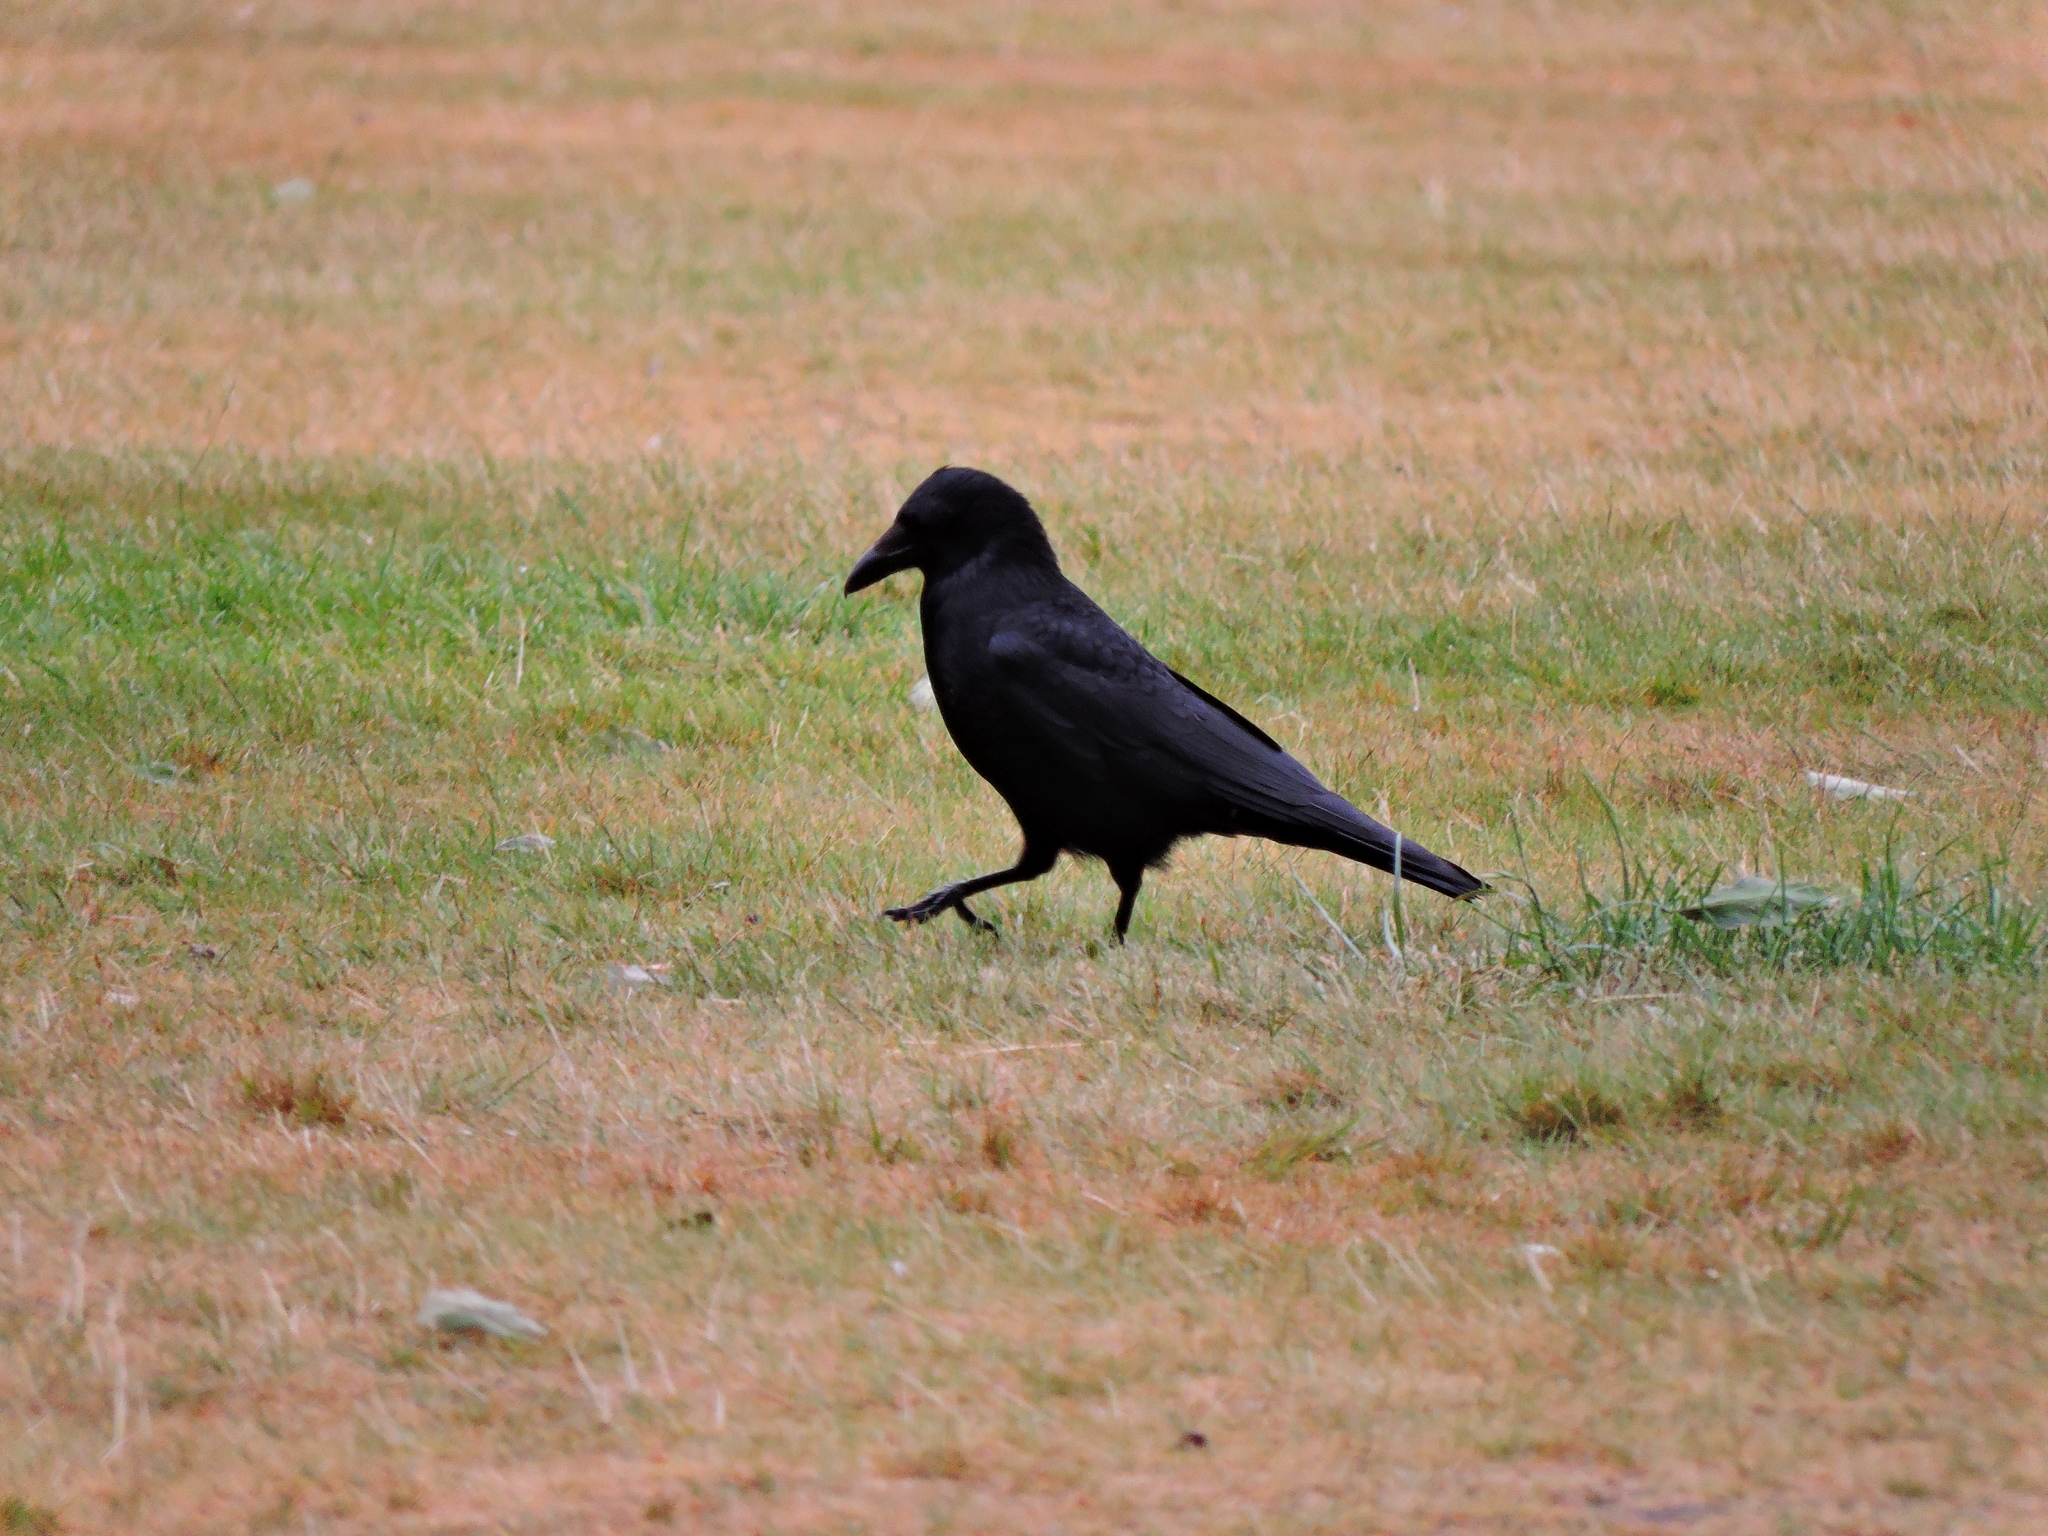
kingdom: Animalia
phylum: Chordata
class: Aves
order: Passeriformes
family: Corvidae
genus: Corvus
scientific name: Corvus corone
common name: Carrion crow
